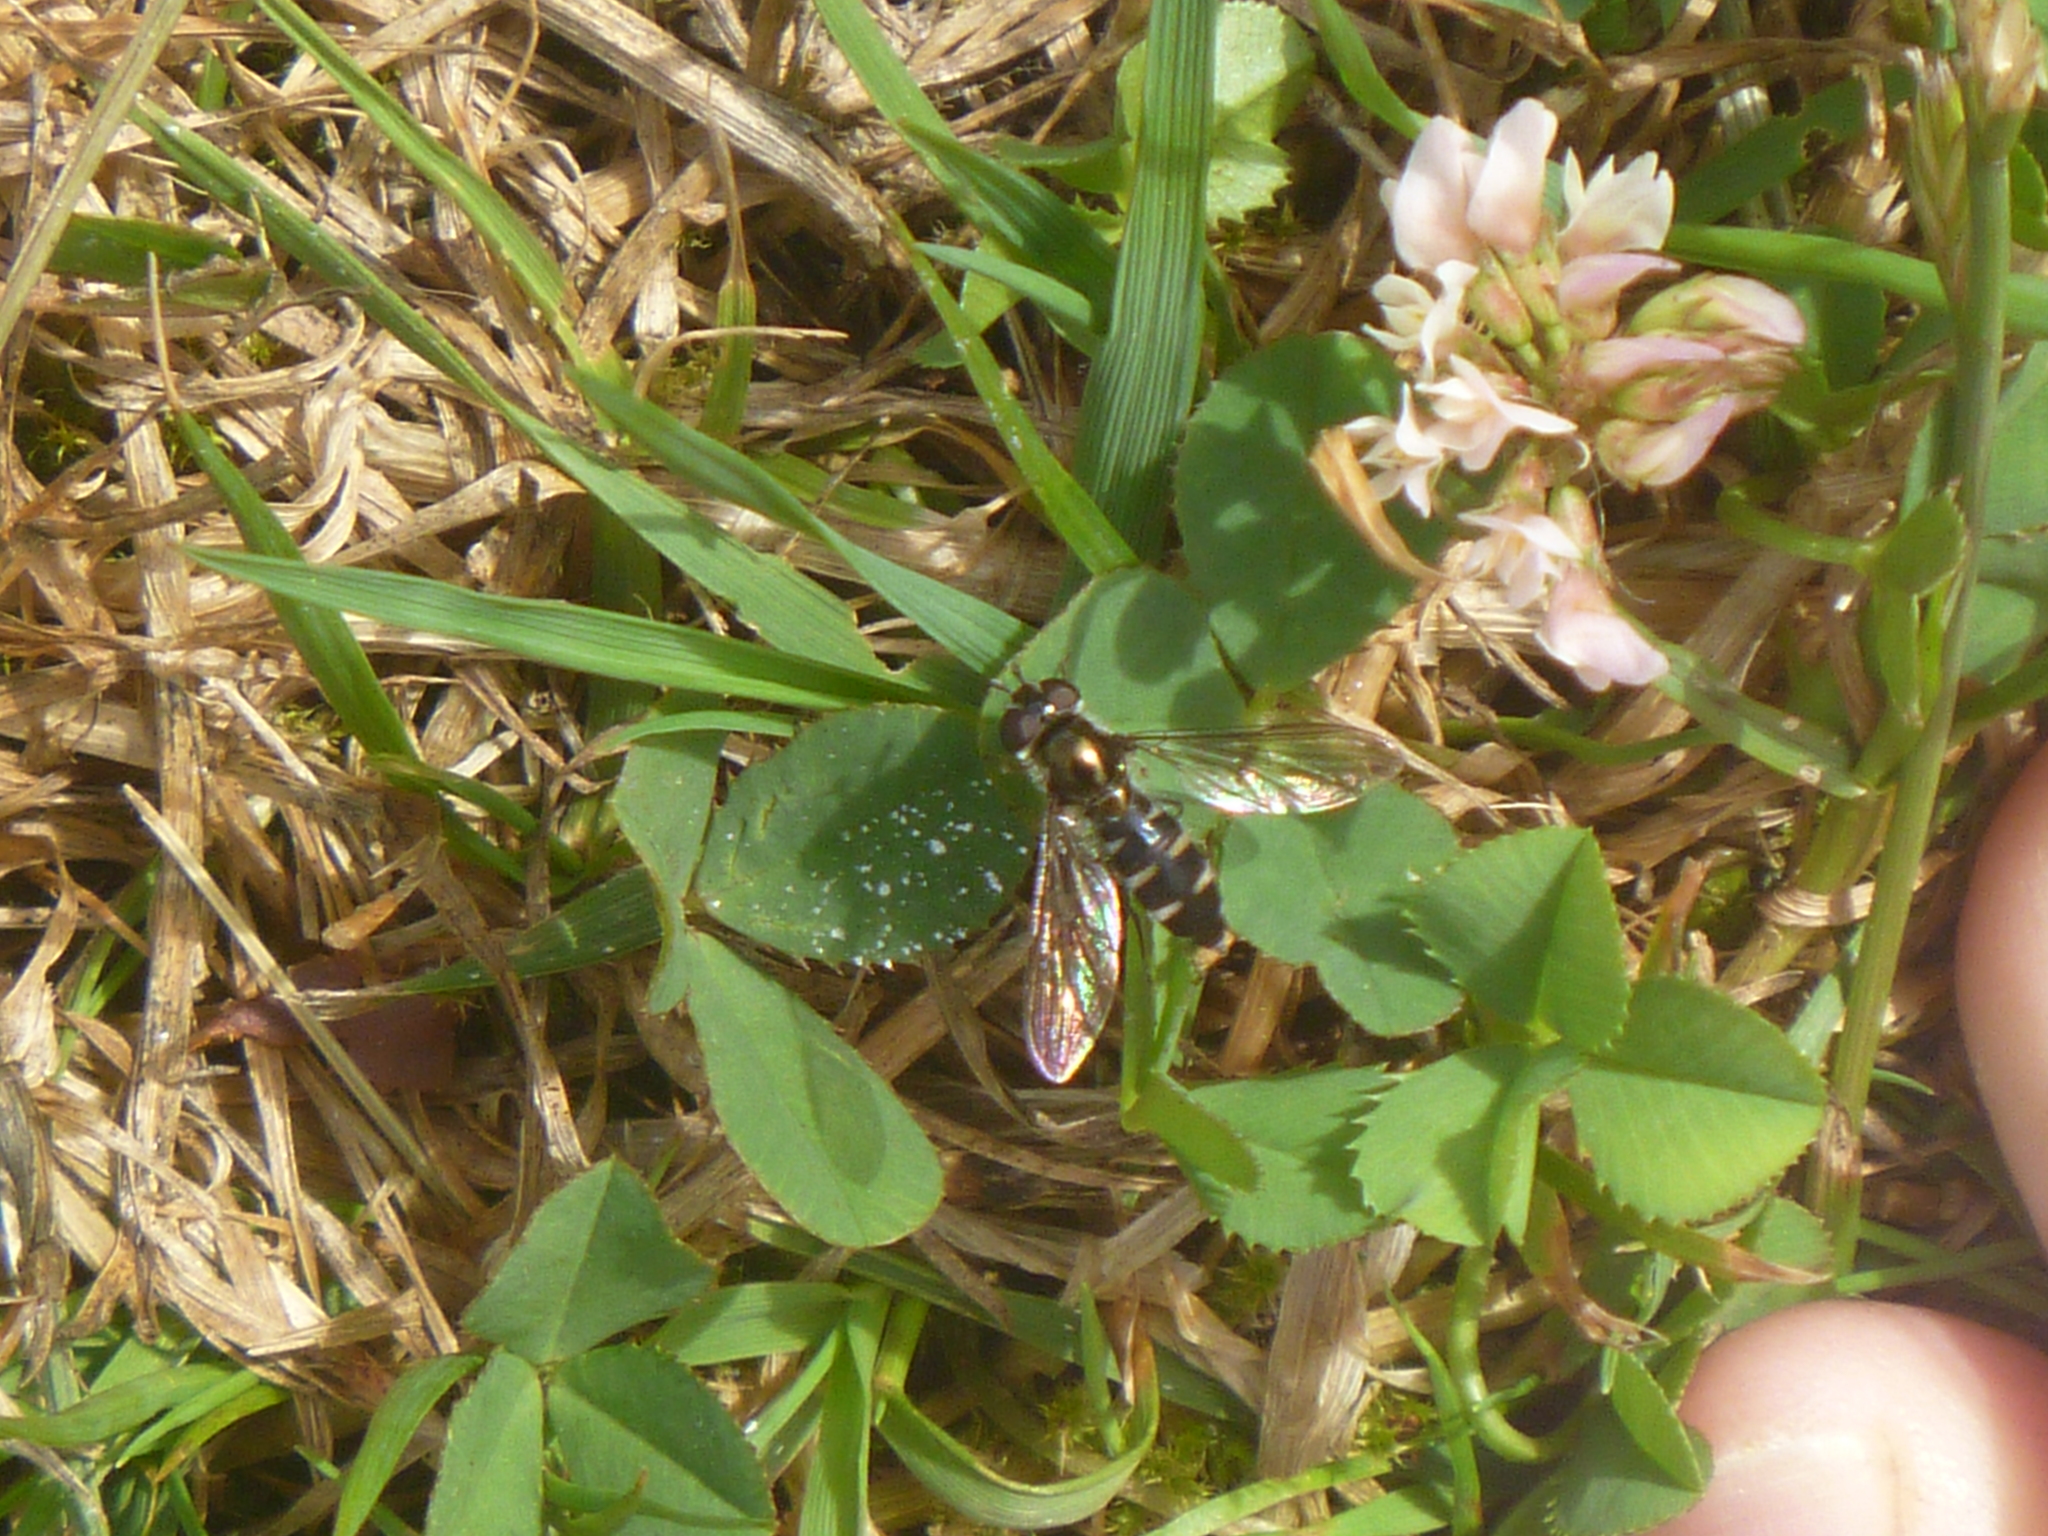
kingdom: Animalia
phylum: Arthropoda
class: Insecta
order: Diptera
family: Syrphidae
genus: Melangyna
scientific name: Melangyna novaezelandiae
